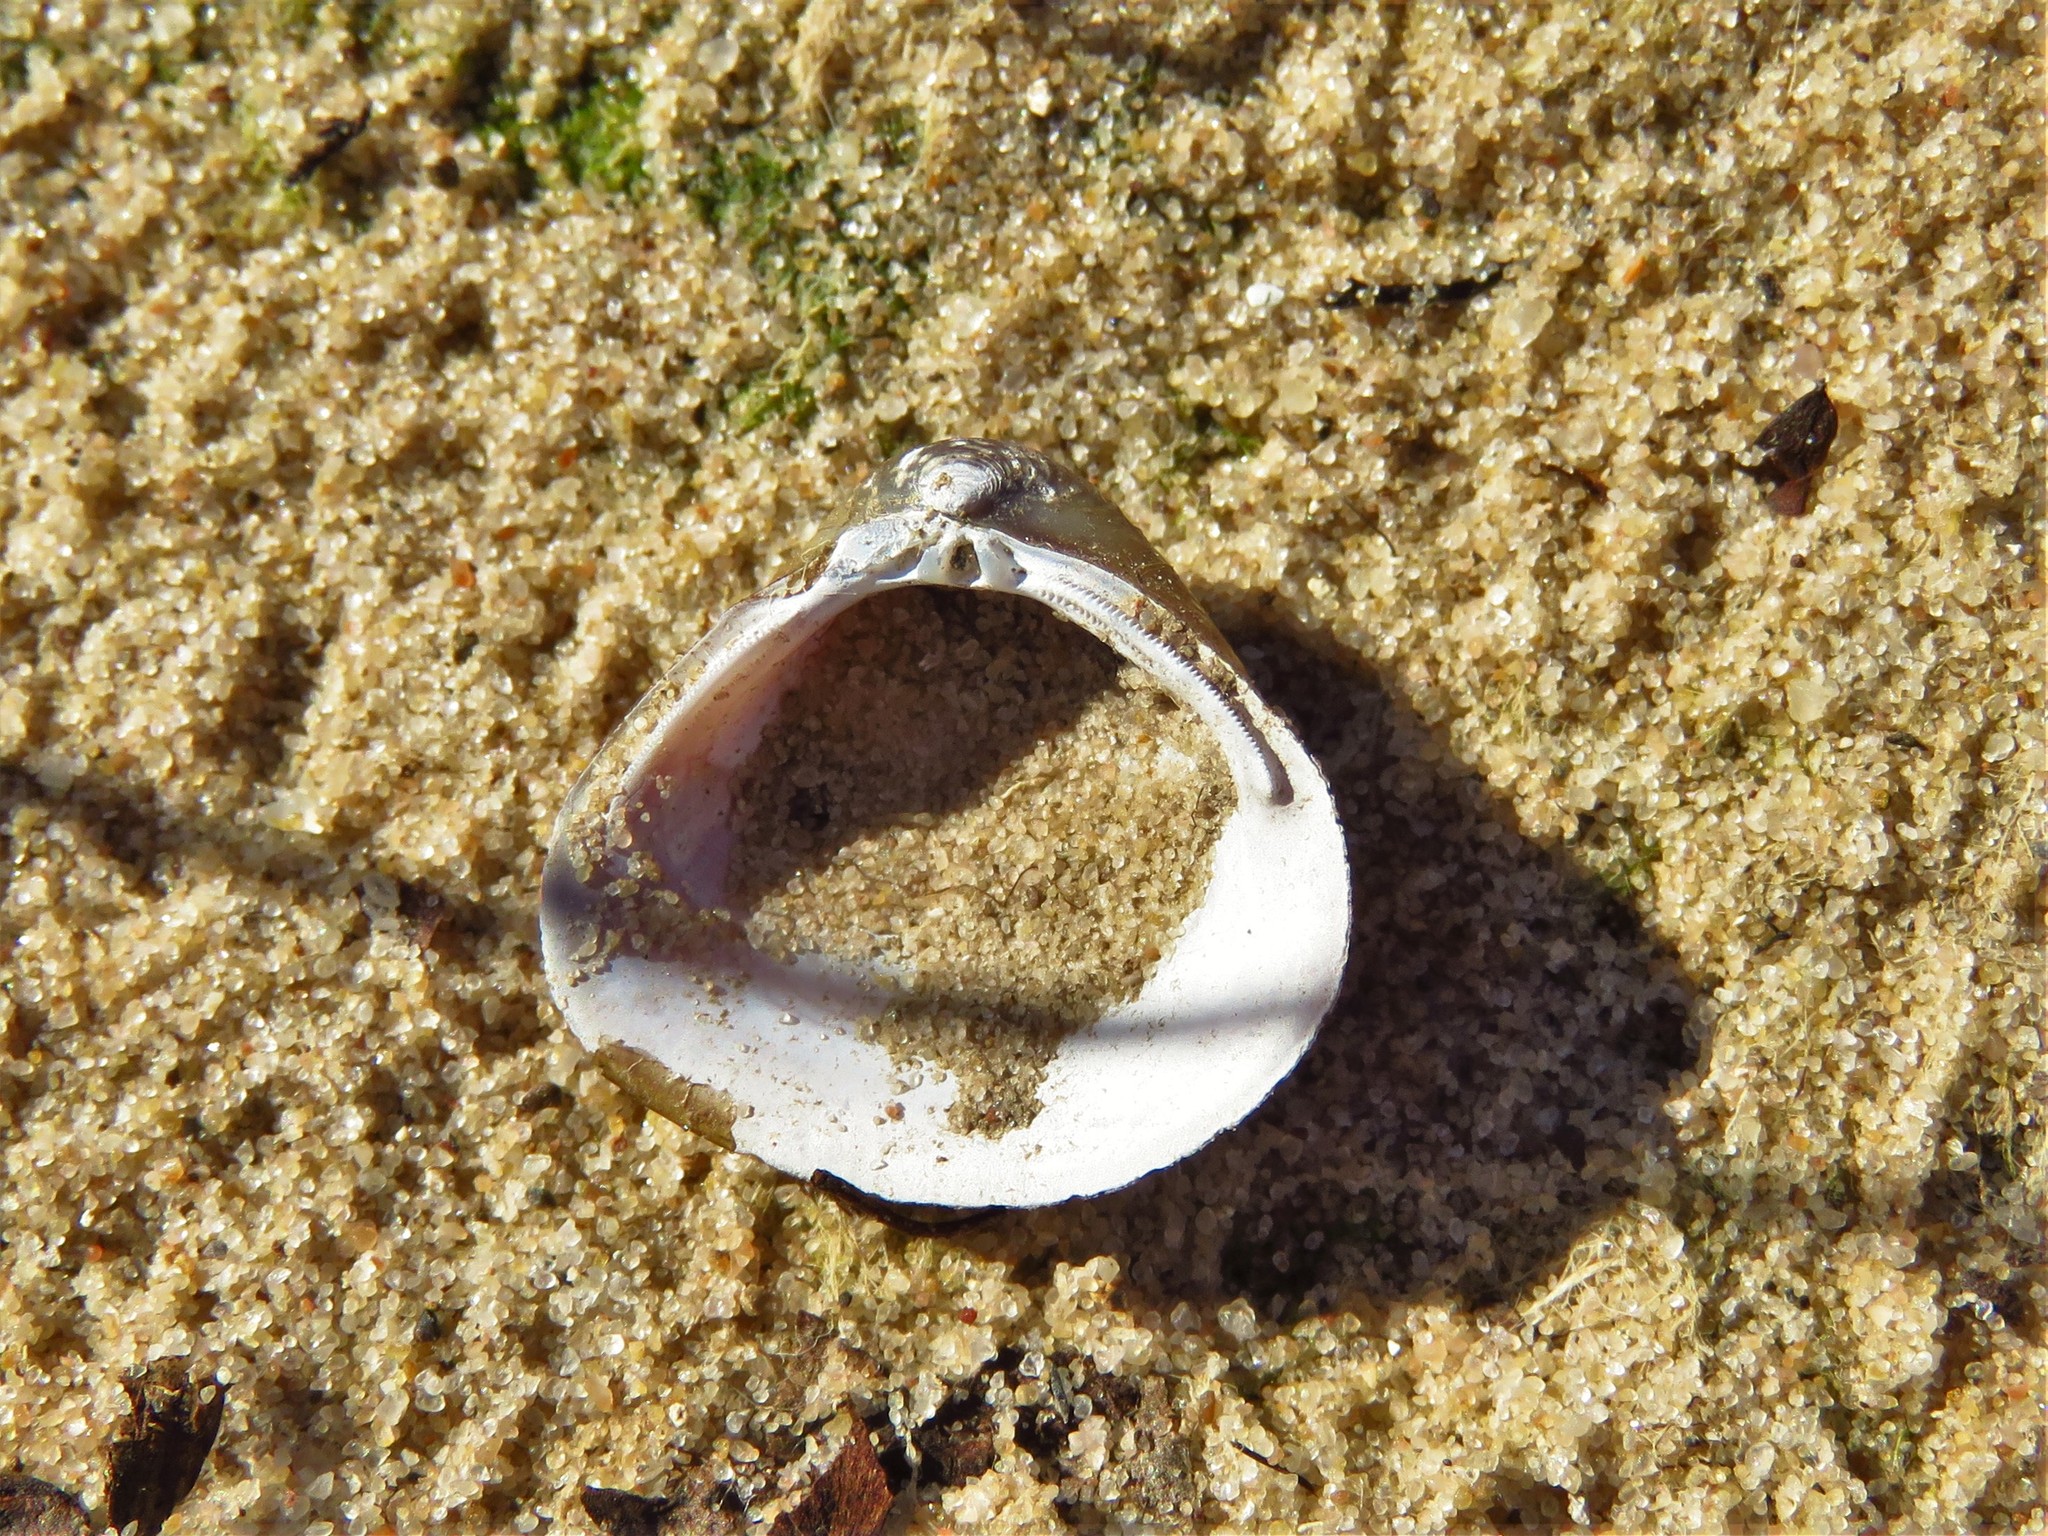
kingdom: Animalia
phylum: Mollusca
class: Bivalvia
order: Venerida
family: Cyrenidae
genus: Corbicula
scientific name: Corbicula fluminea
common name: Asian clam
